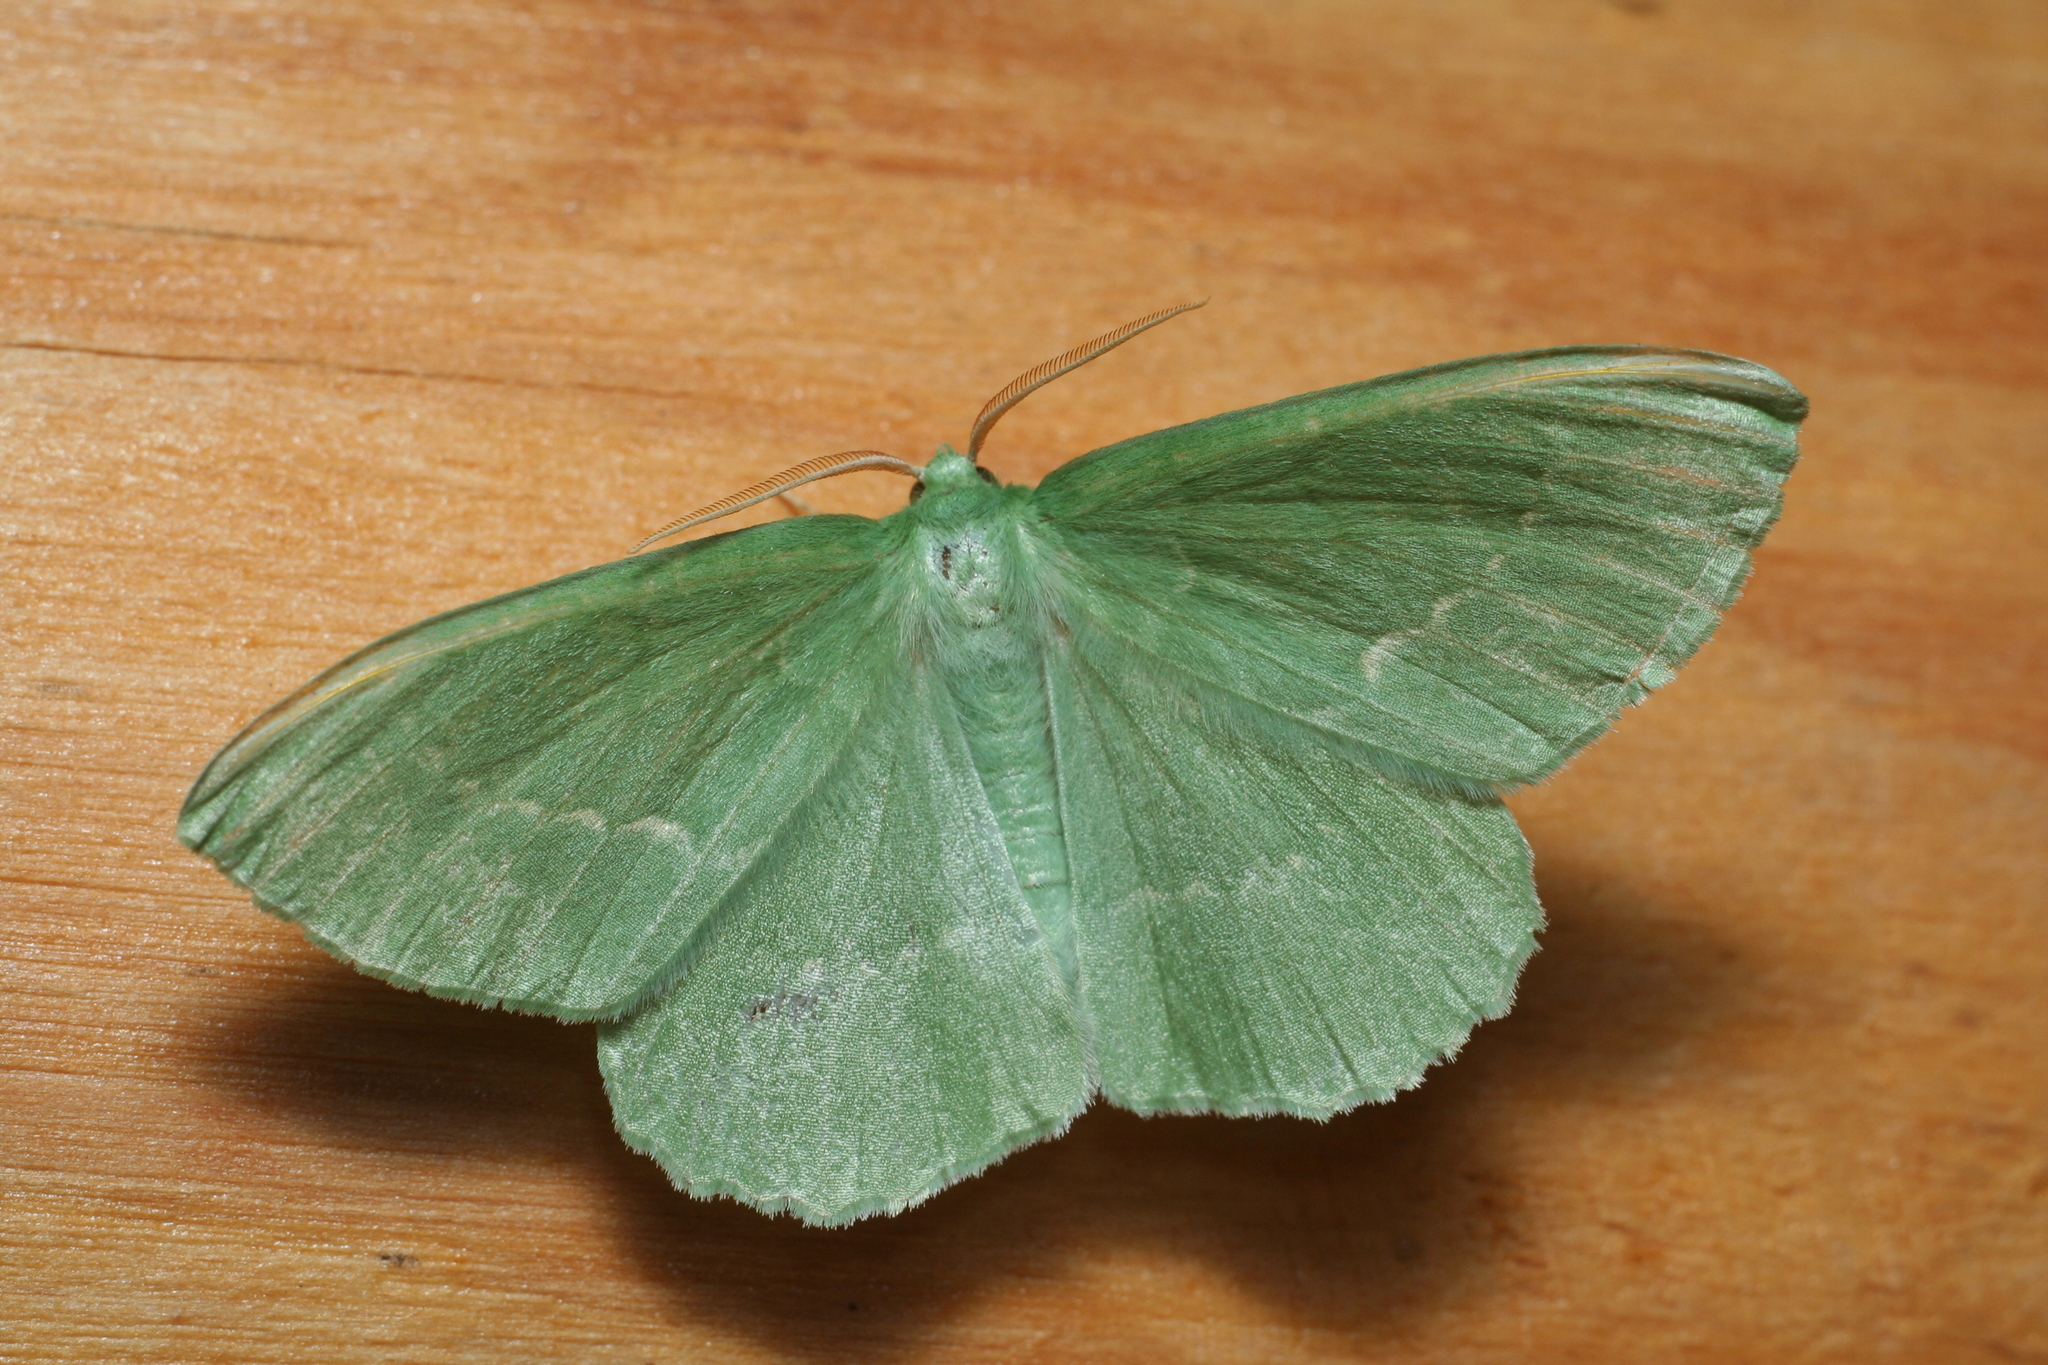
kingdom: Animalia
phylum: Arthropoda
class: Insecta
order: Lepidoptera
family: Geometridae
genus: Geometra
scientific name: Geometra papilionaria
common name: Large emerald
